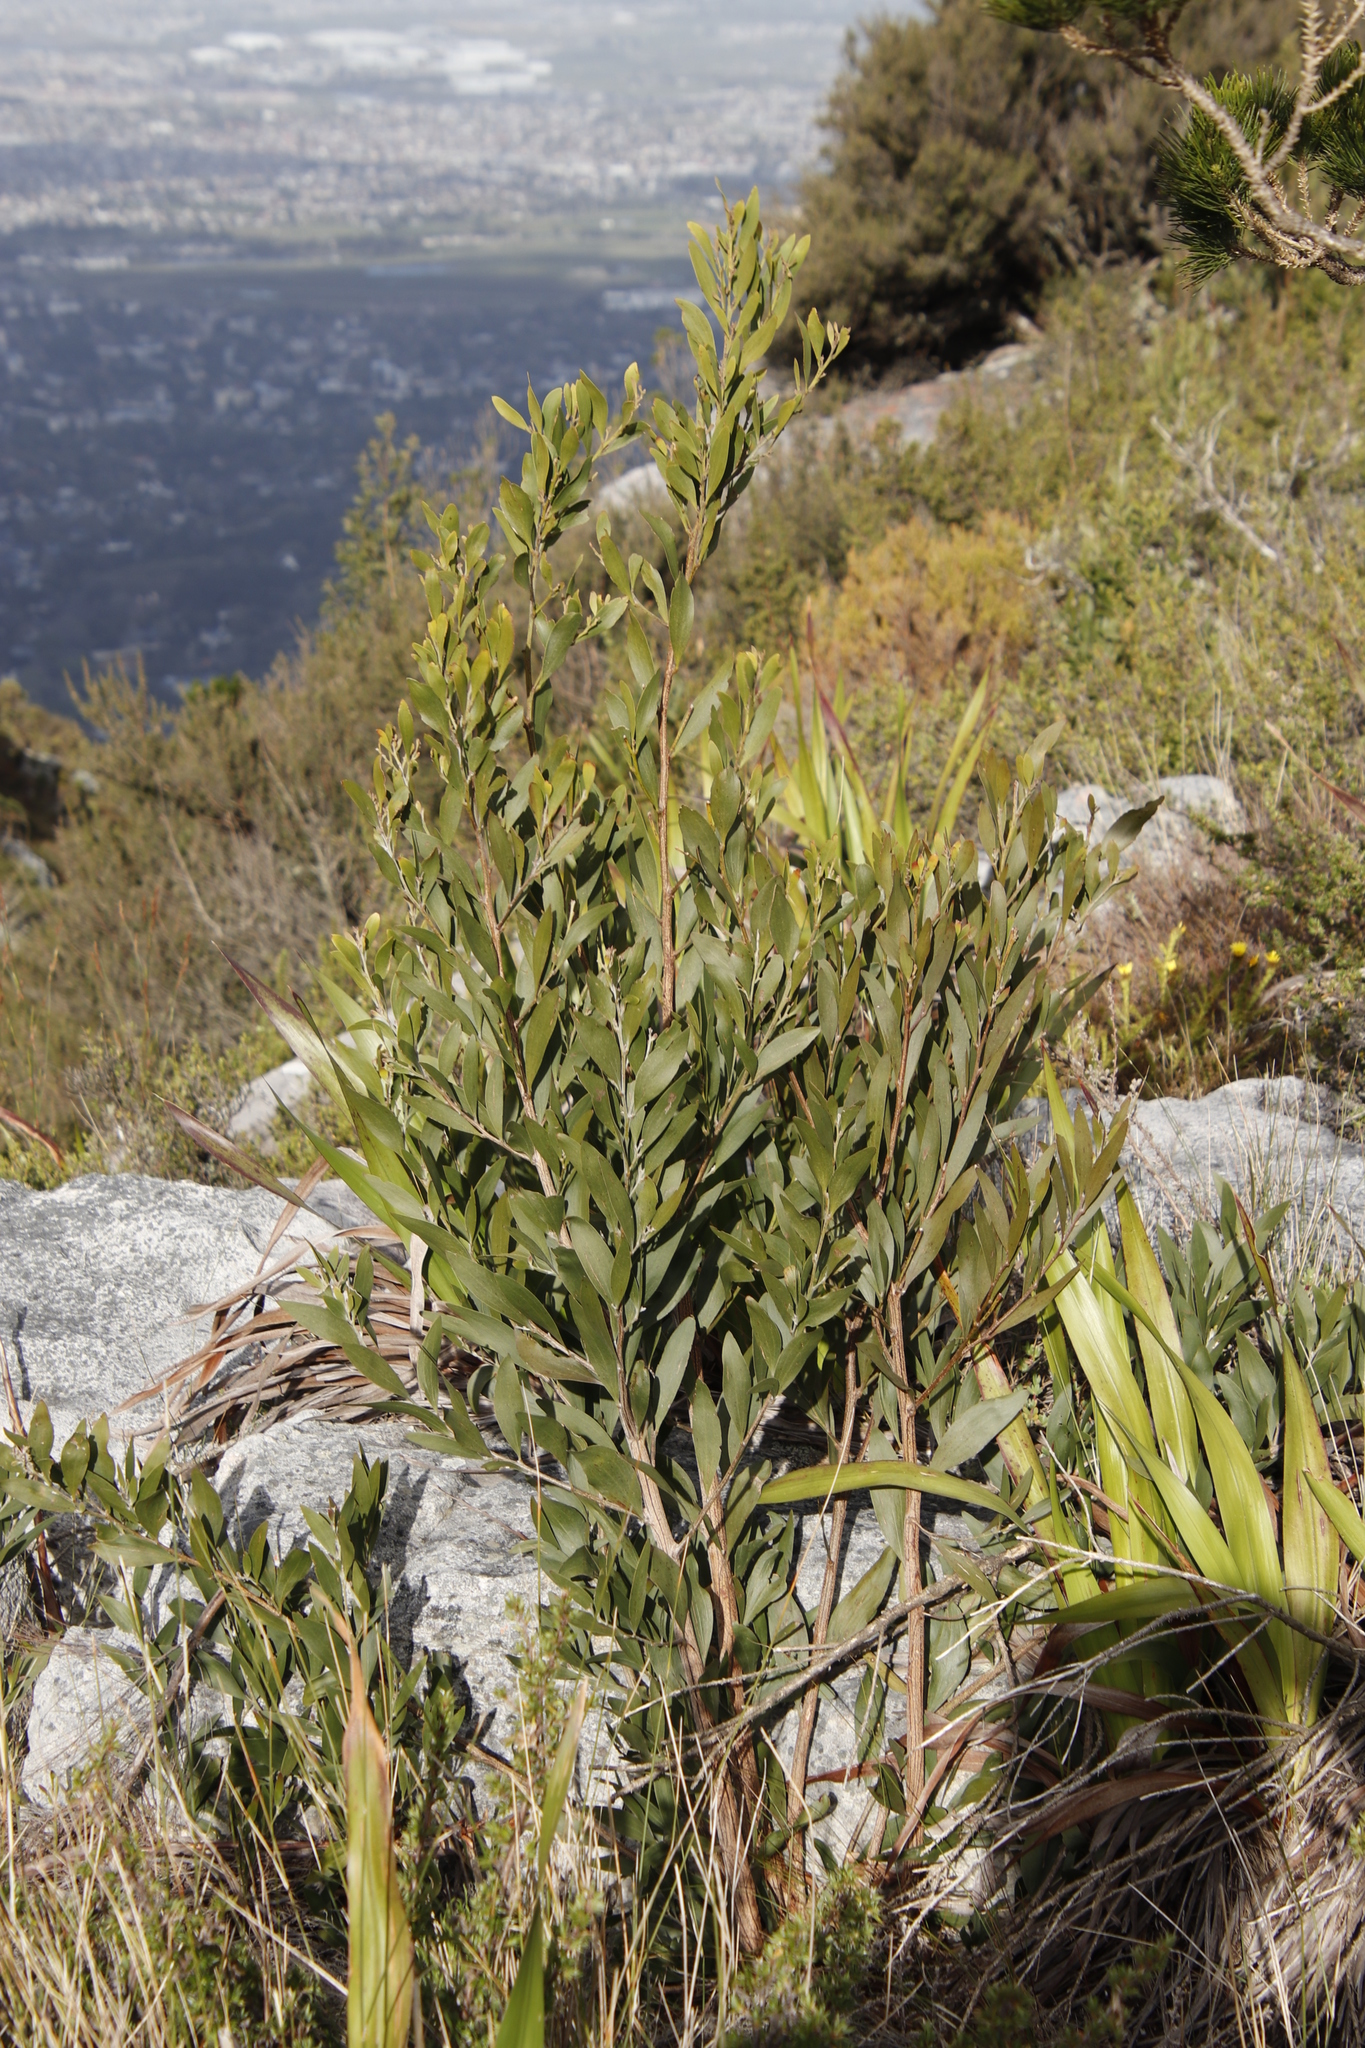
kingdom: Plantae
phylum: Tracheophyta
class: Magnoliopsida
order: Fabales
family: Fabaceae
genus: Acacia
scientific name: Acacia melanoxylon
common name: Blackwood
